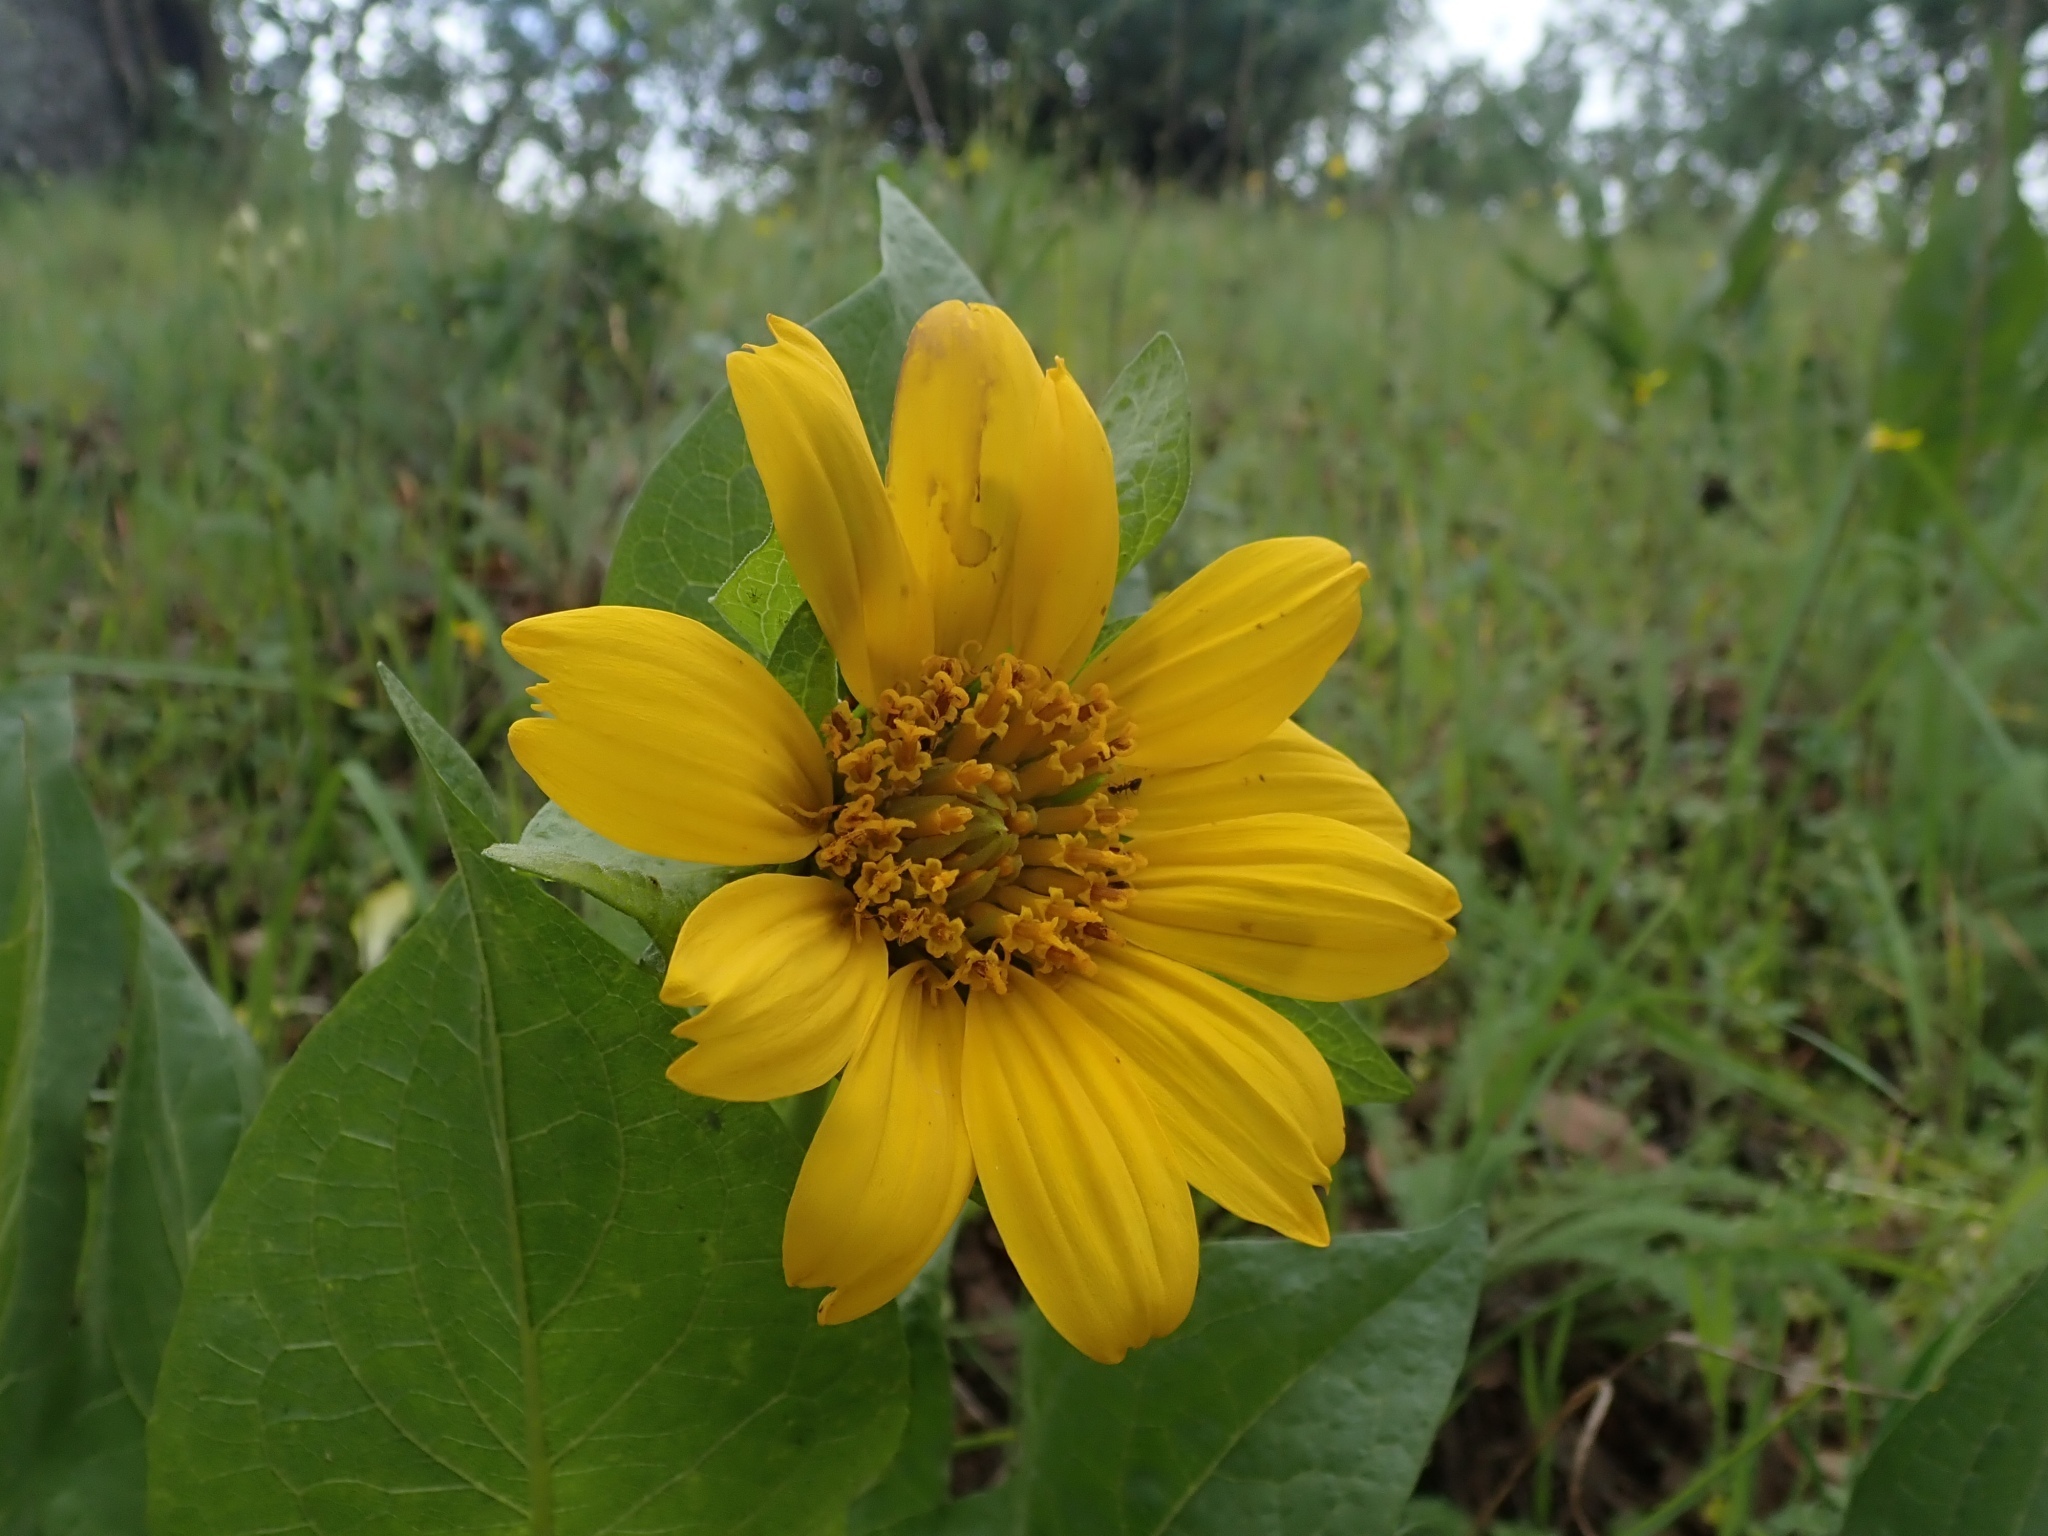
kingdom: Plantae
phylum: Tracheophyta
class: Magnoliopsida
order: Asterales
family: Asteraceae
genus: Wyethia
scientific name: Wyethia glabra
